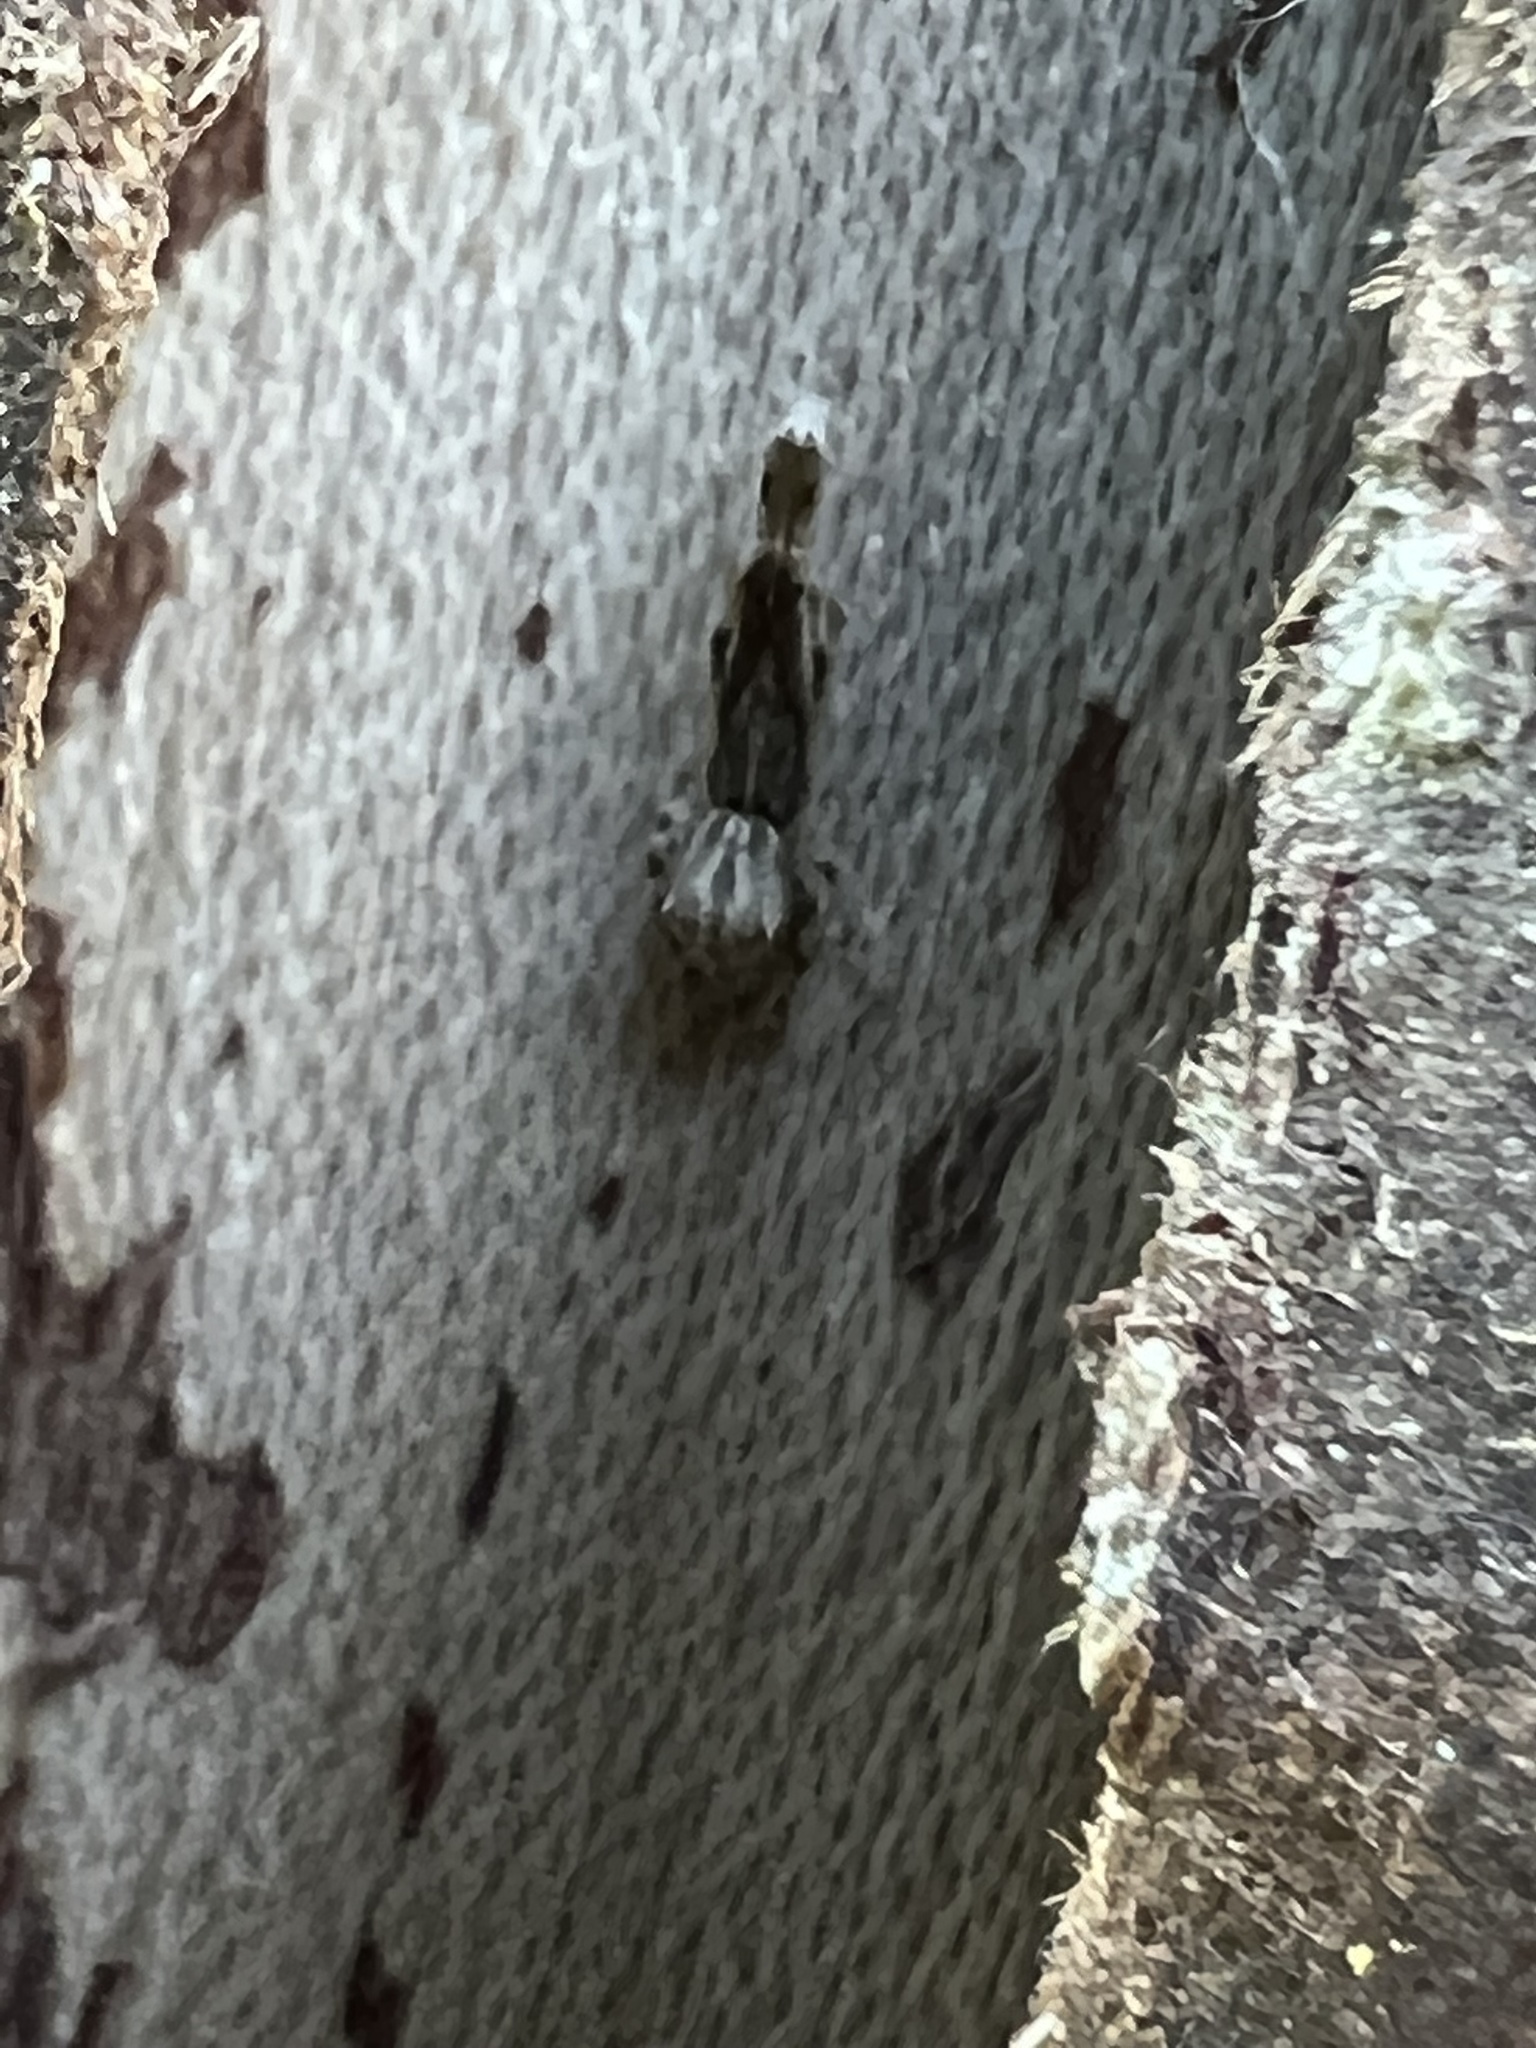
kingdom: Animalia
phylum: Arthropoda
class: Arachnida
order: Araneae
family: Uloboridae
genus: Uloborus
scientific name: Uloborus glomosus
